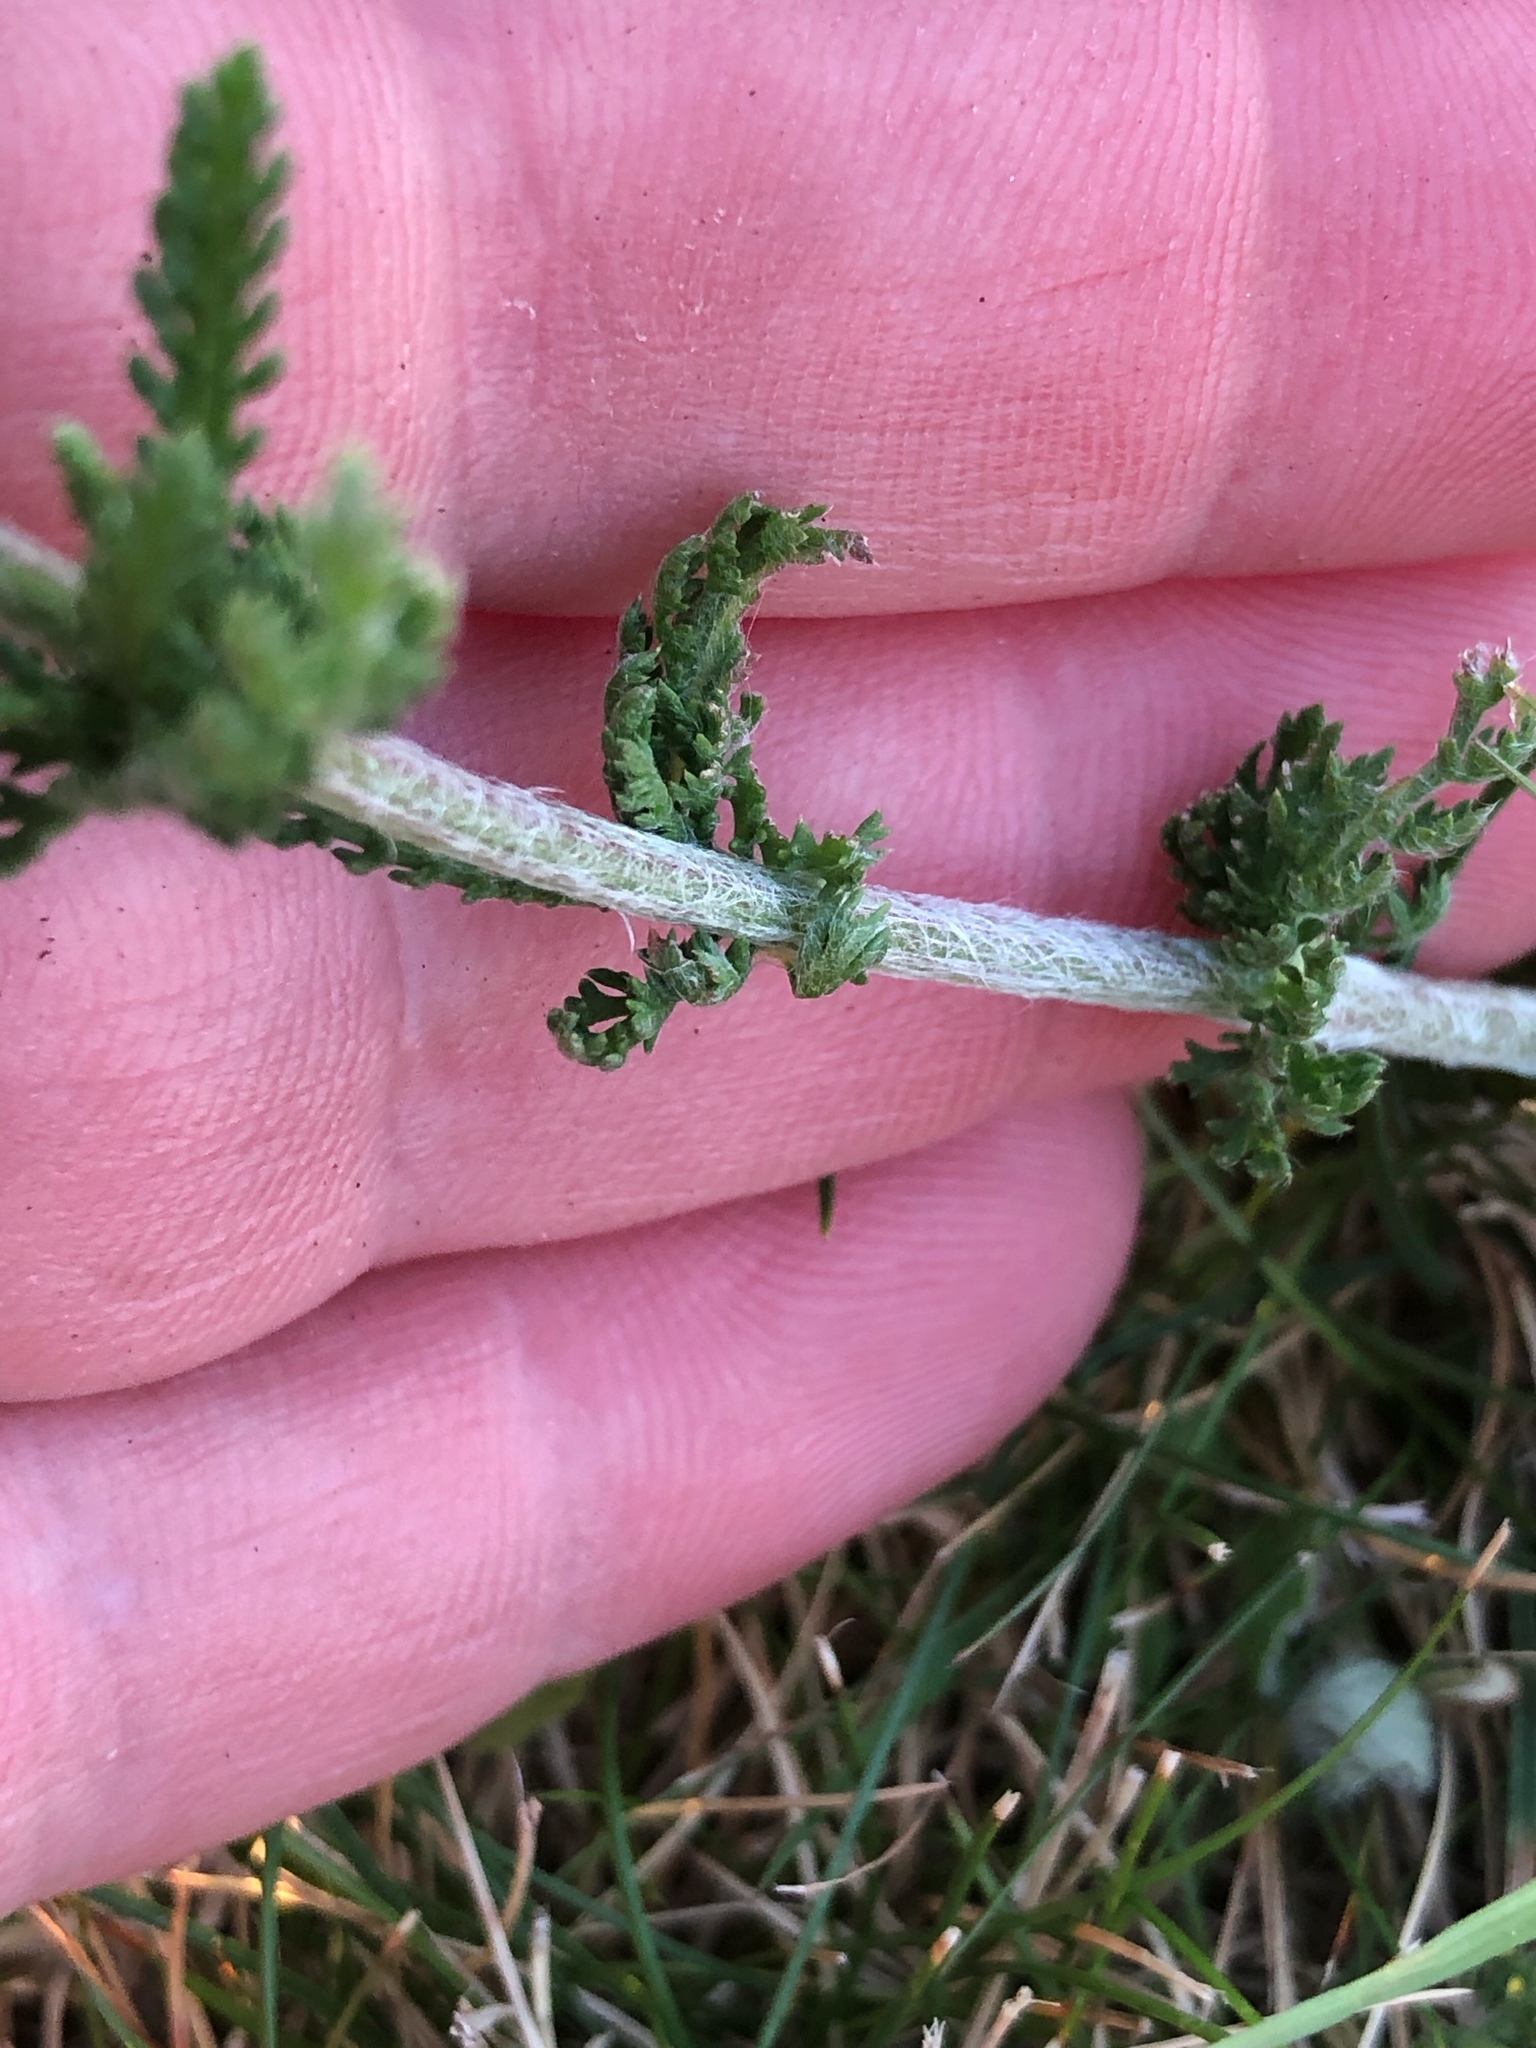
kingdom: Plantae
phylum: Tracheophyta
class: Magnoliopsida
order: Asterales
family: Asteraceae
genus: Achillea
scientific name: Achillea millefolium
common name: Yarrow
